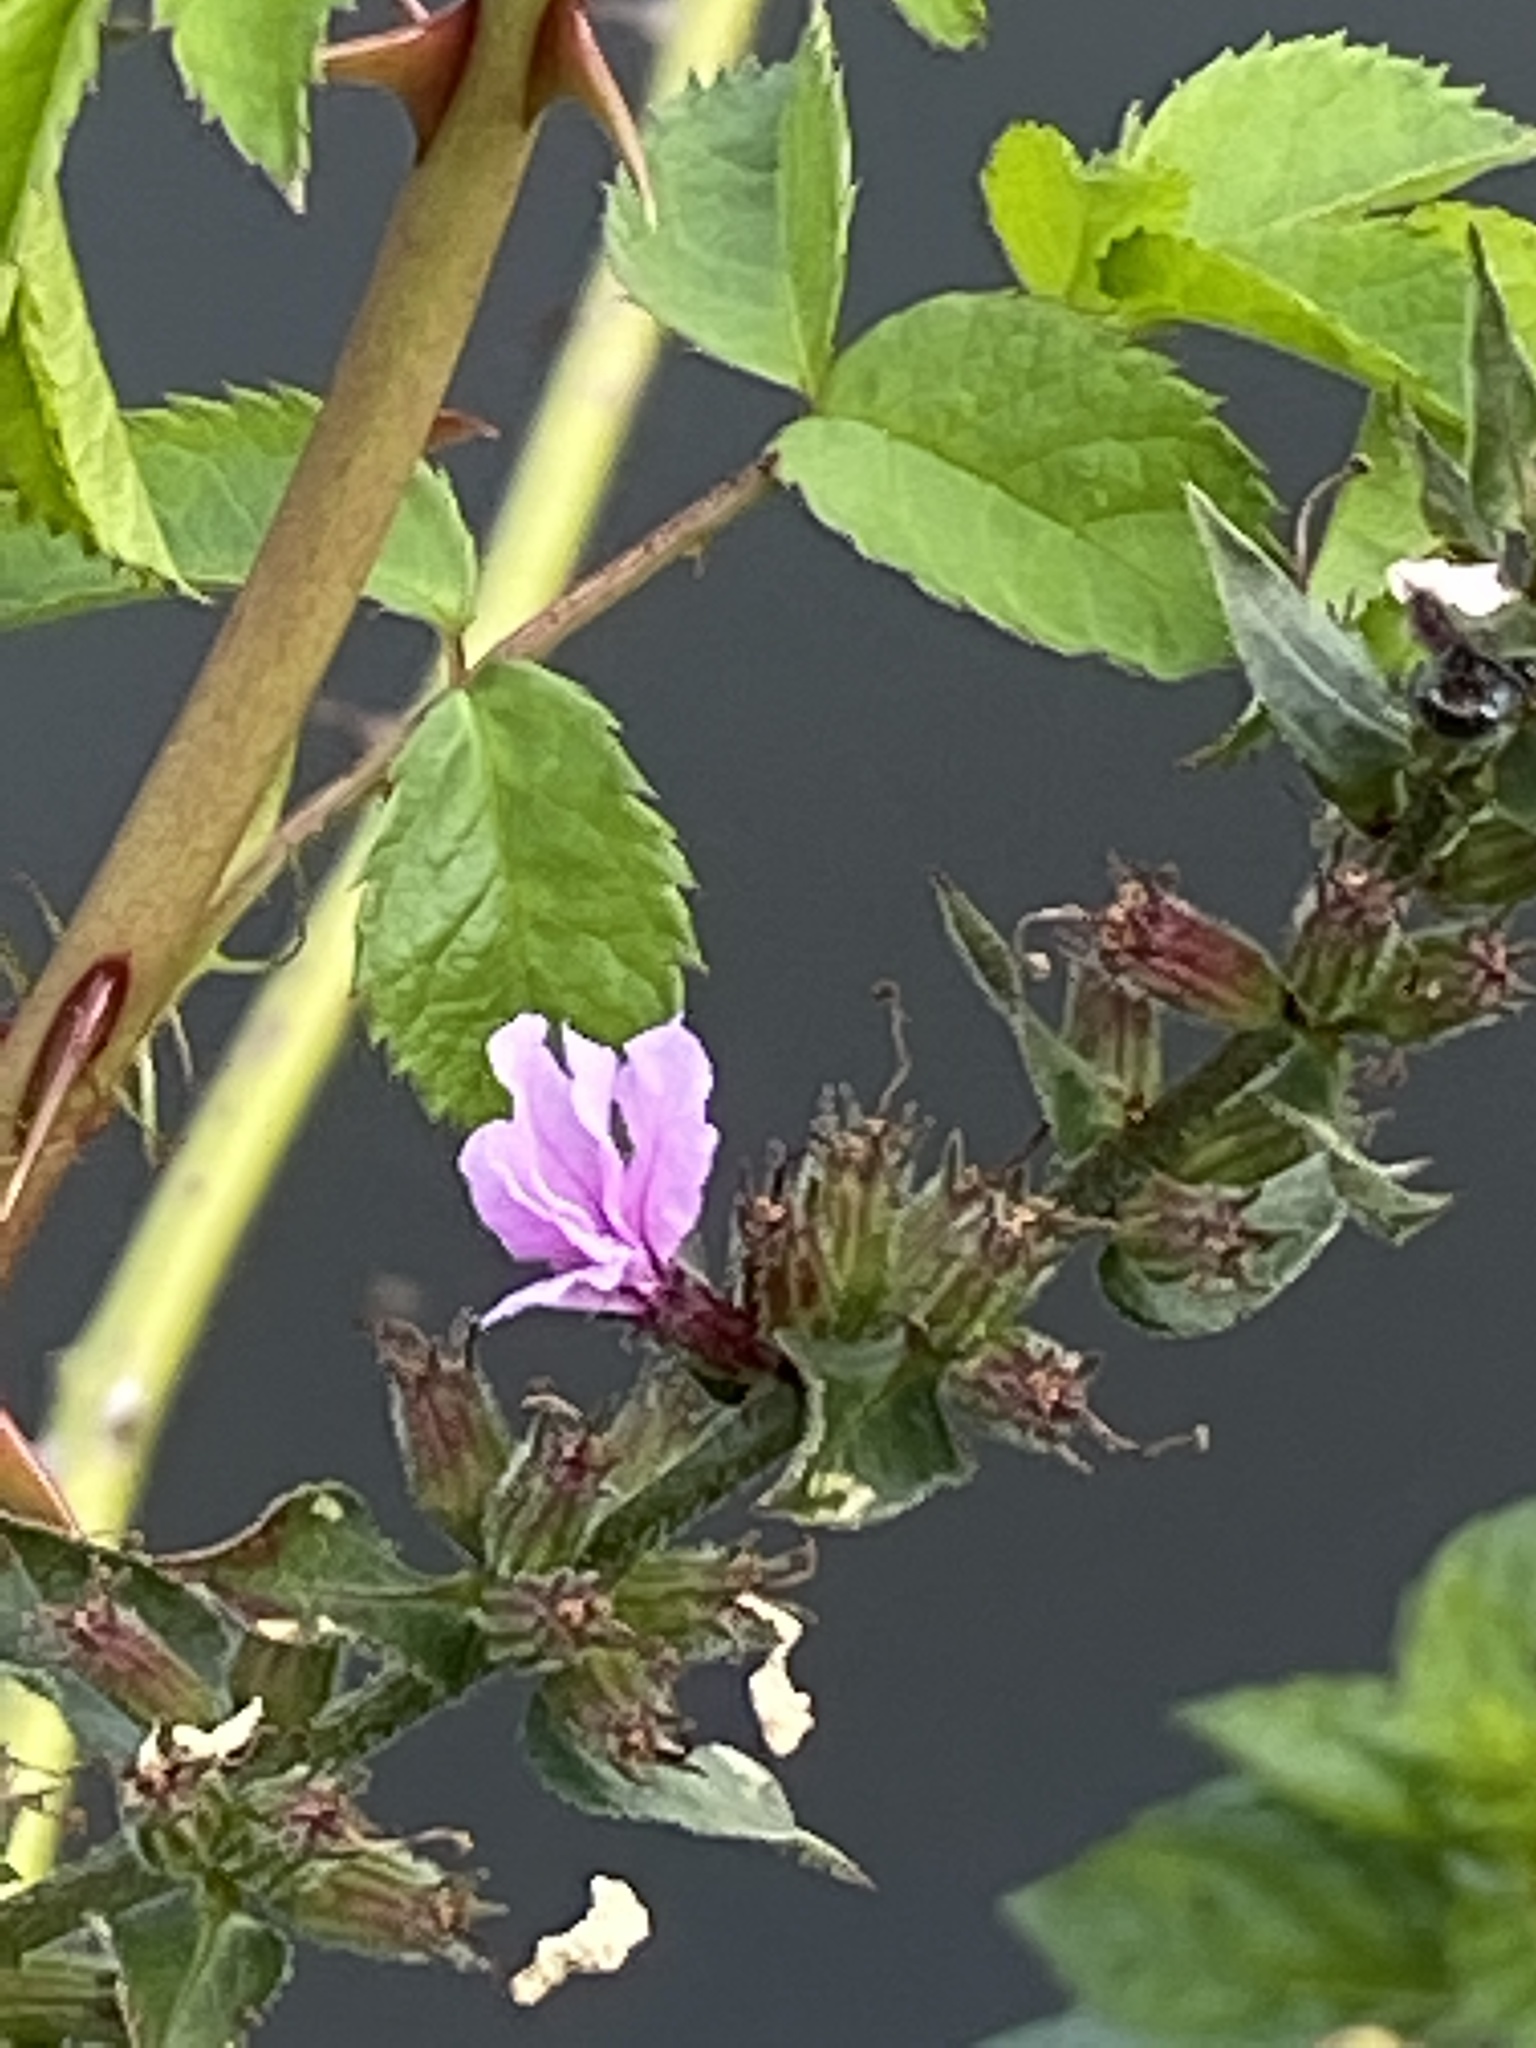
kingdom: Plantae
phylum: Tracheophyta
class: Magnoliopsida
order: Myrtales
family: Lythraceae
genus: Lythrum
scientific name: Lythrum salicaria
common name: Purple loosestrife
